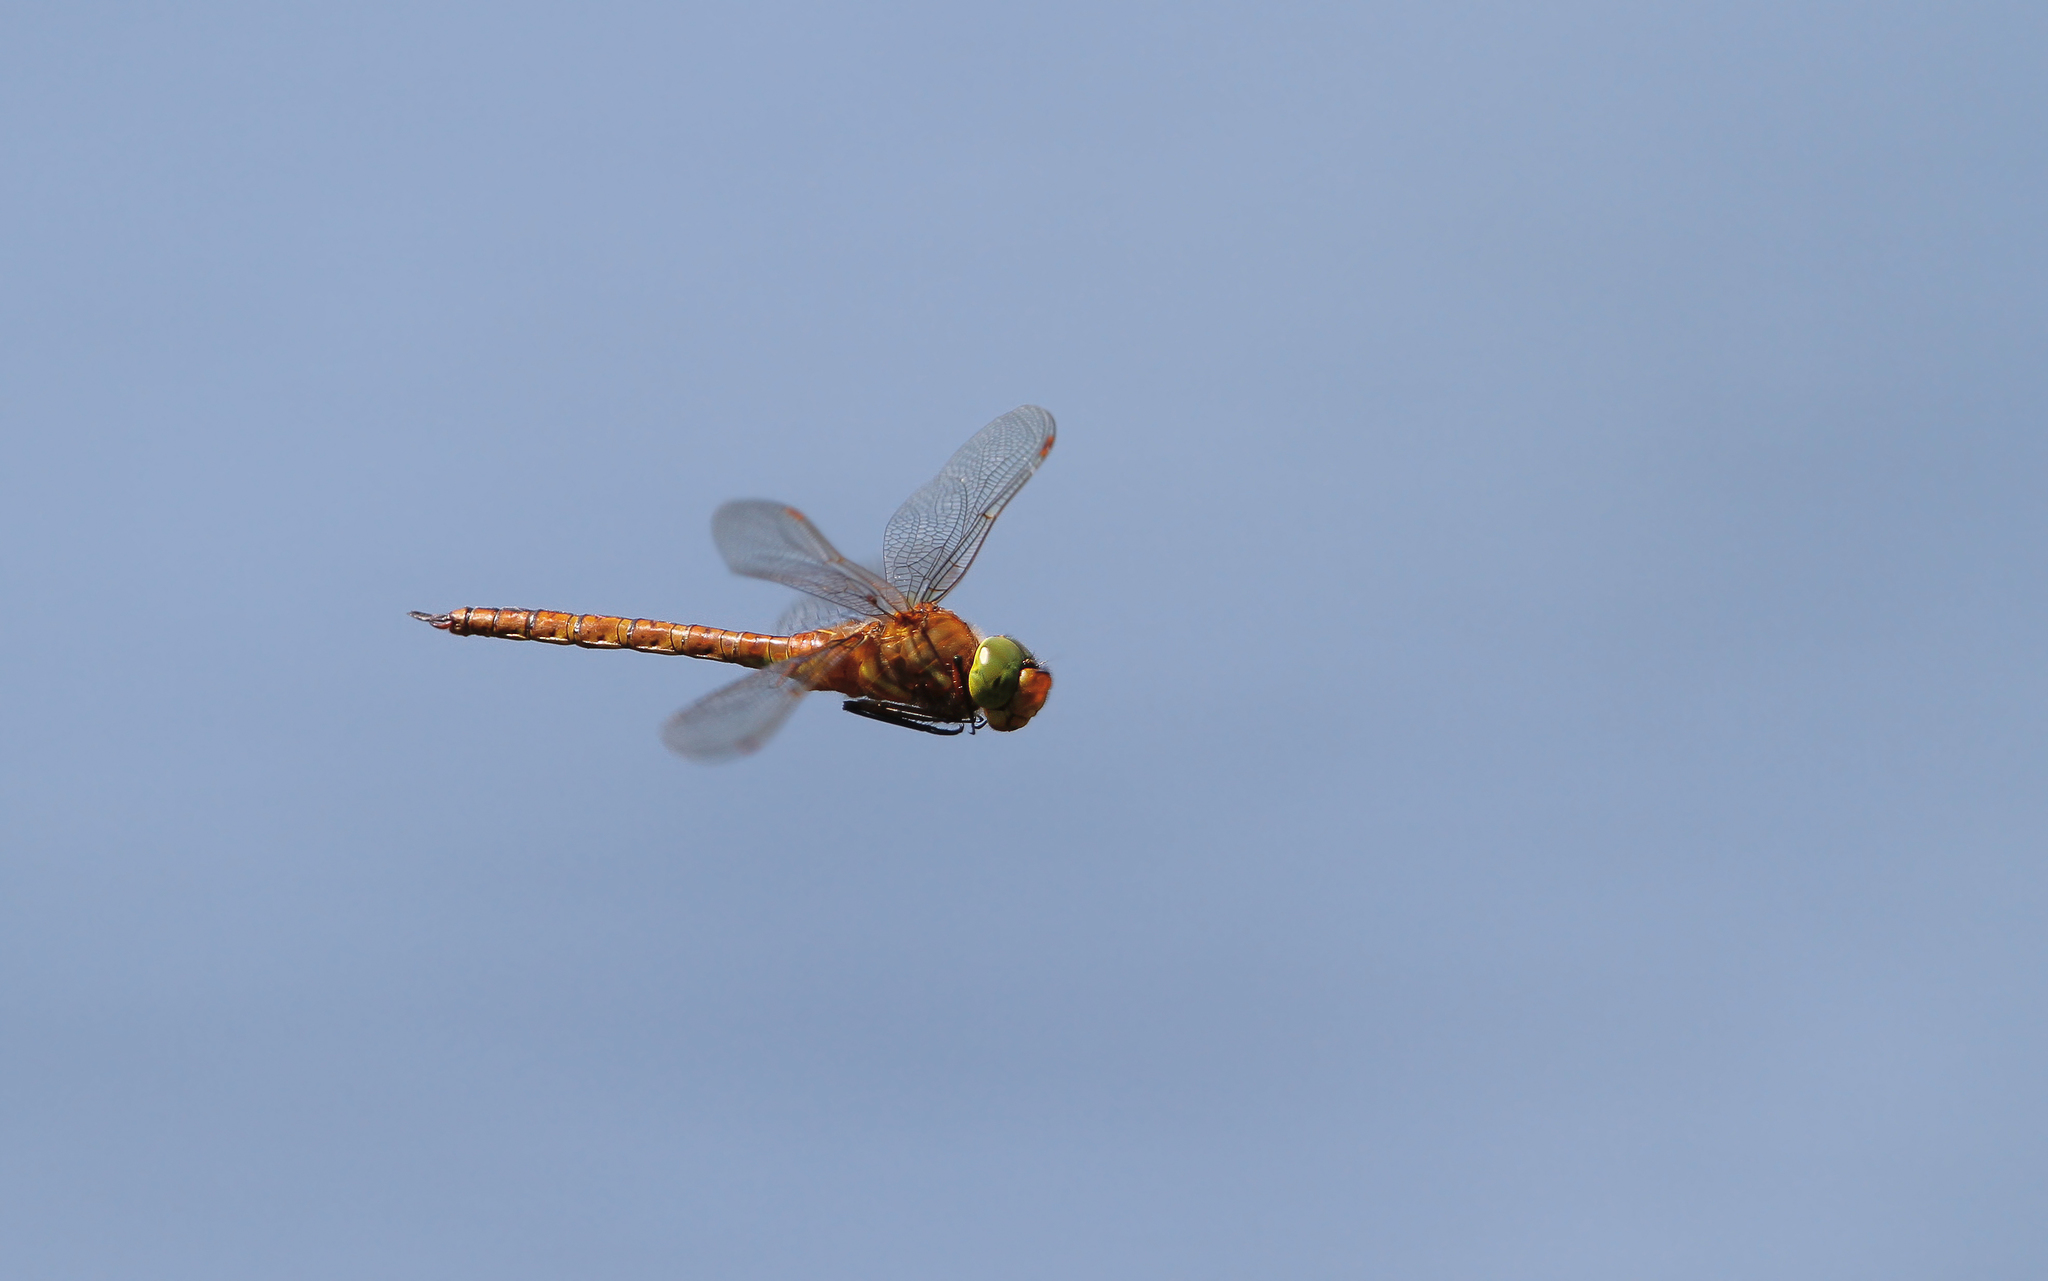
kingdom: Animalia
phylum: Arthropoda
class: Insecta
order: Odonata
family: Aeshnidae
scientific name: Aeshnidae
